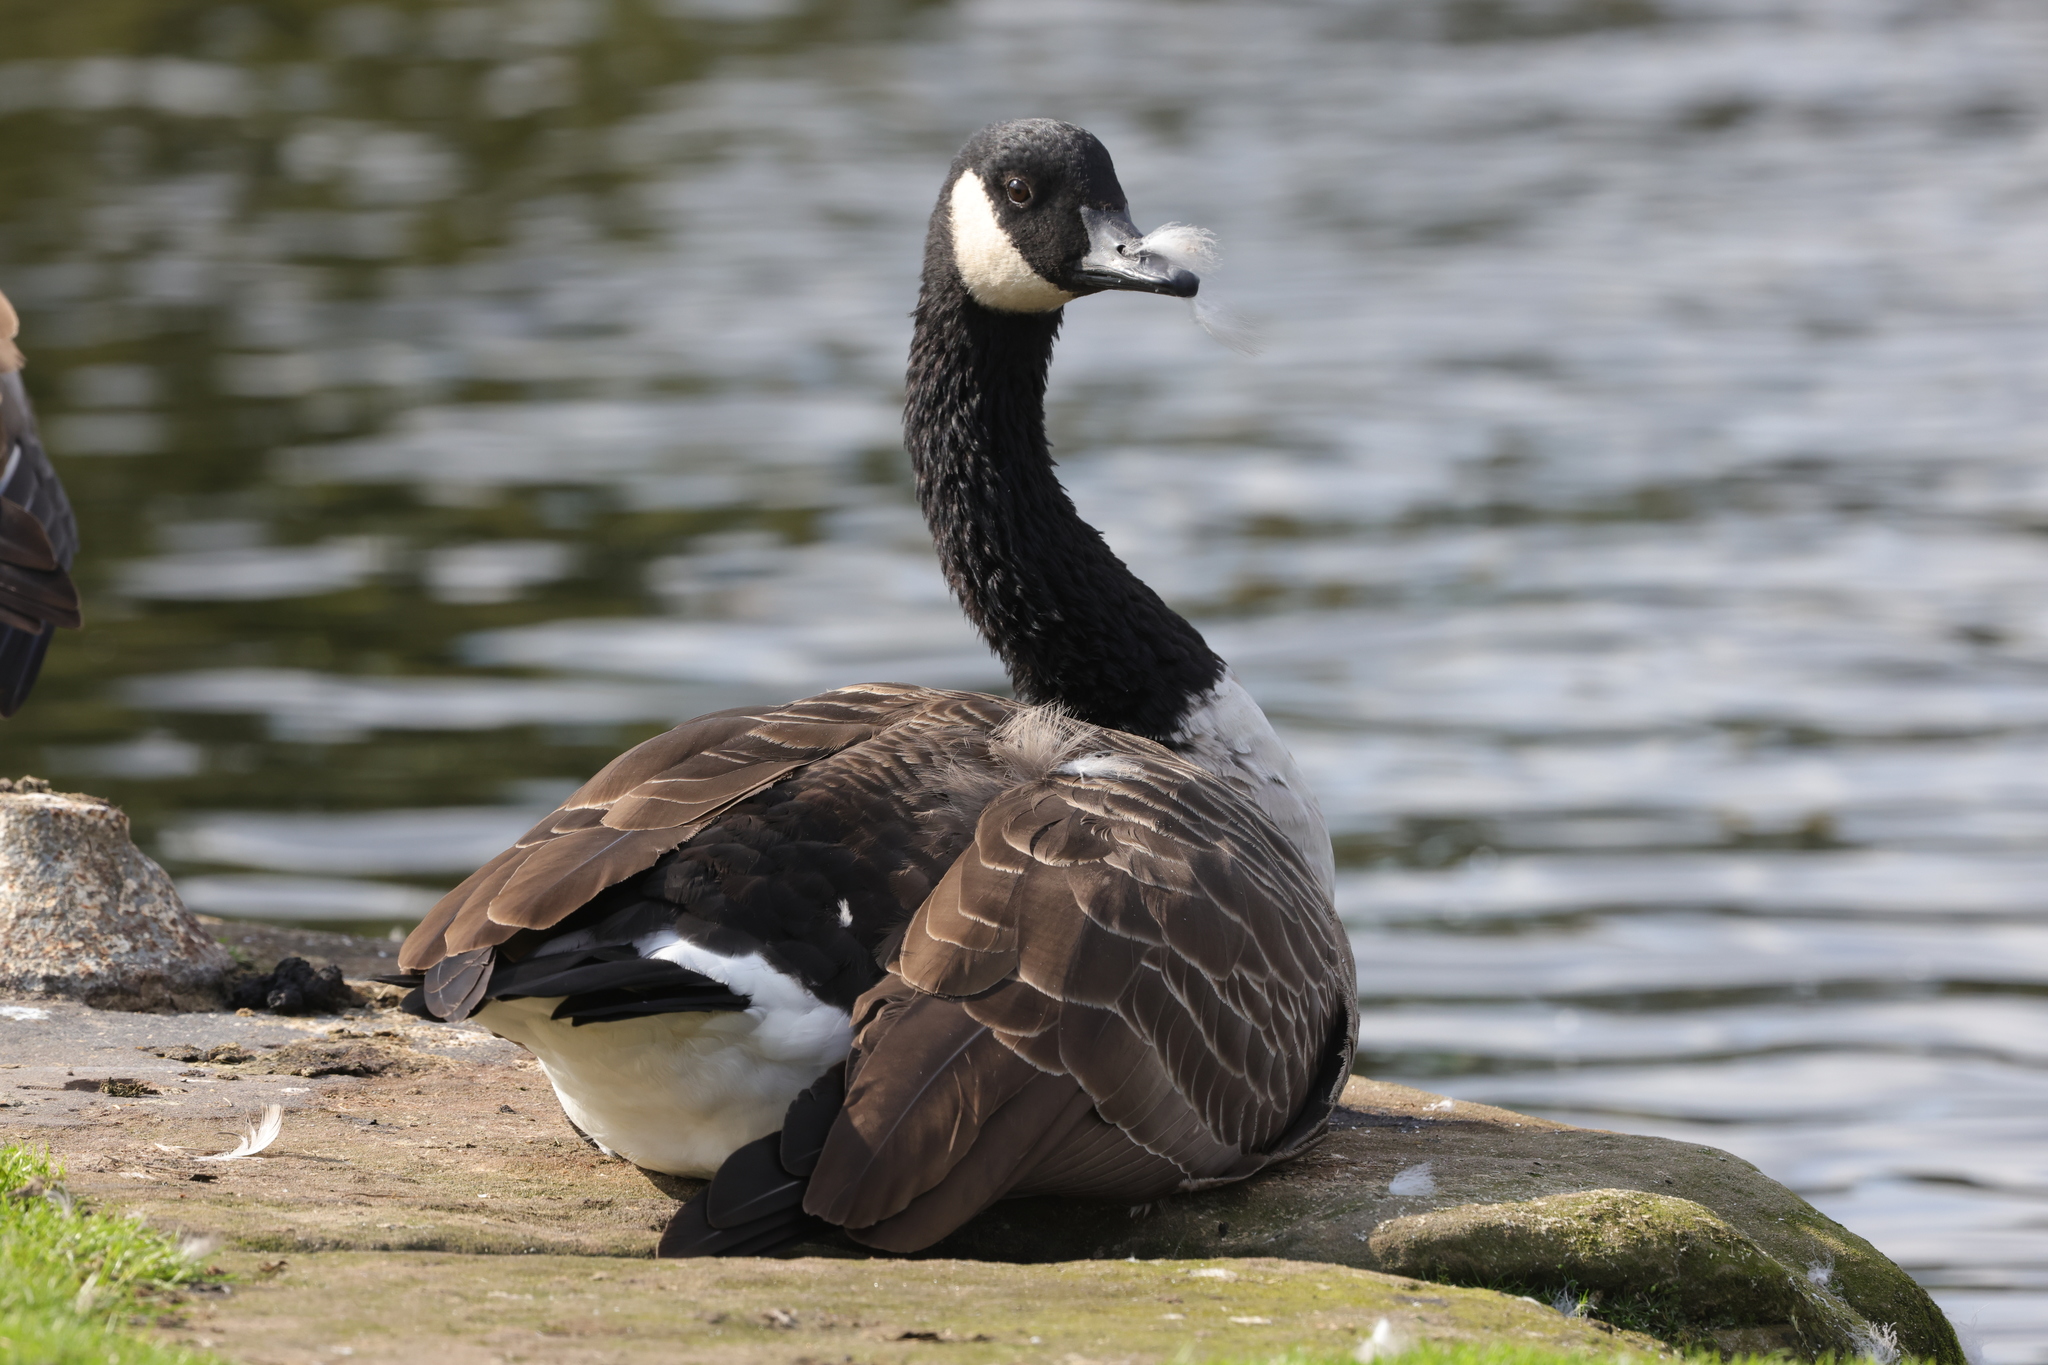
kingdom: Animalia
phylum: Chordata
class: Aves
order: Anseriformes
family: Anatidae
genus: Branta
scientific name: Branta canadensis
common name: Canada goose
